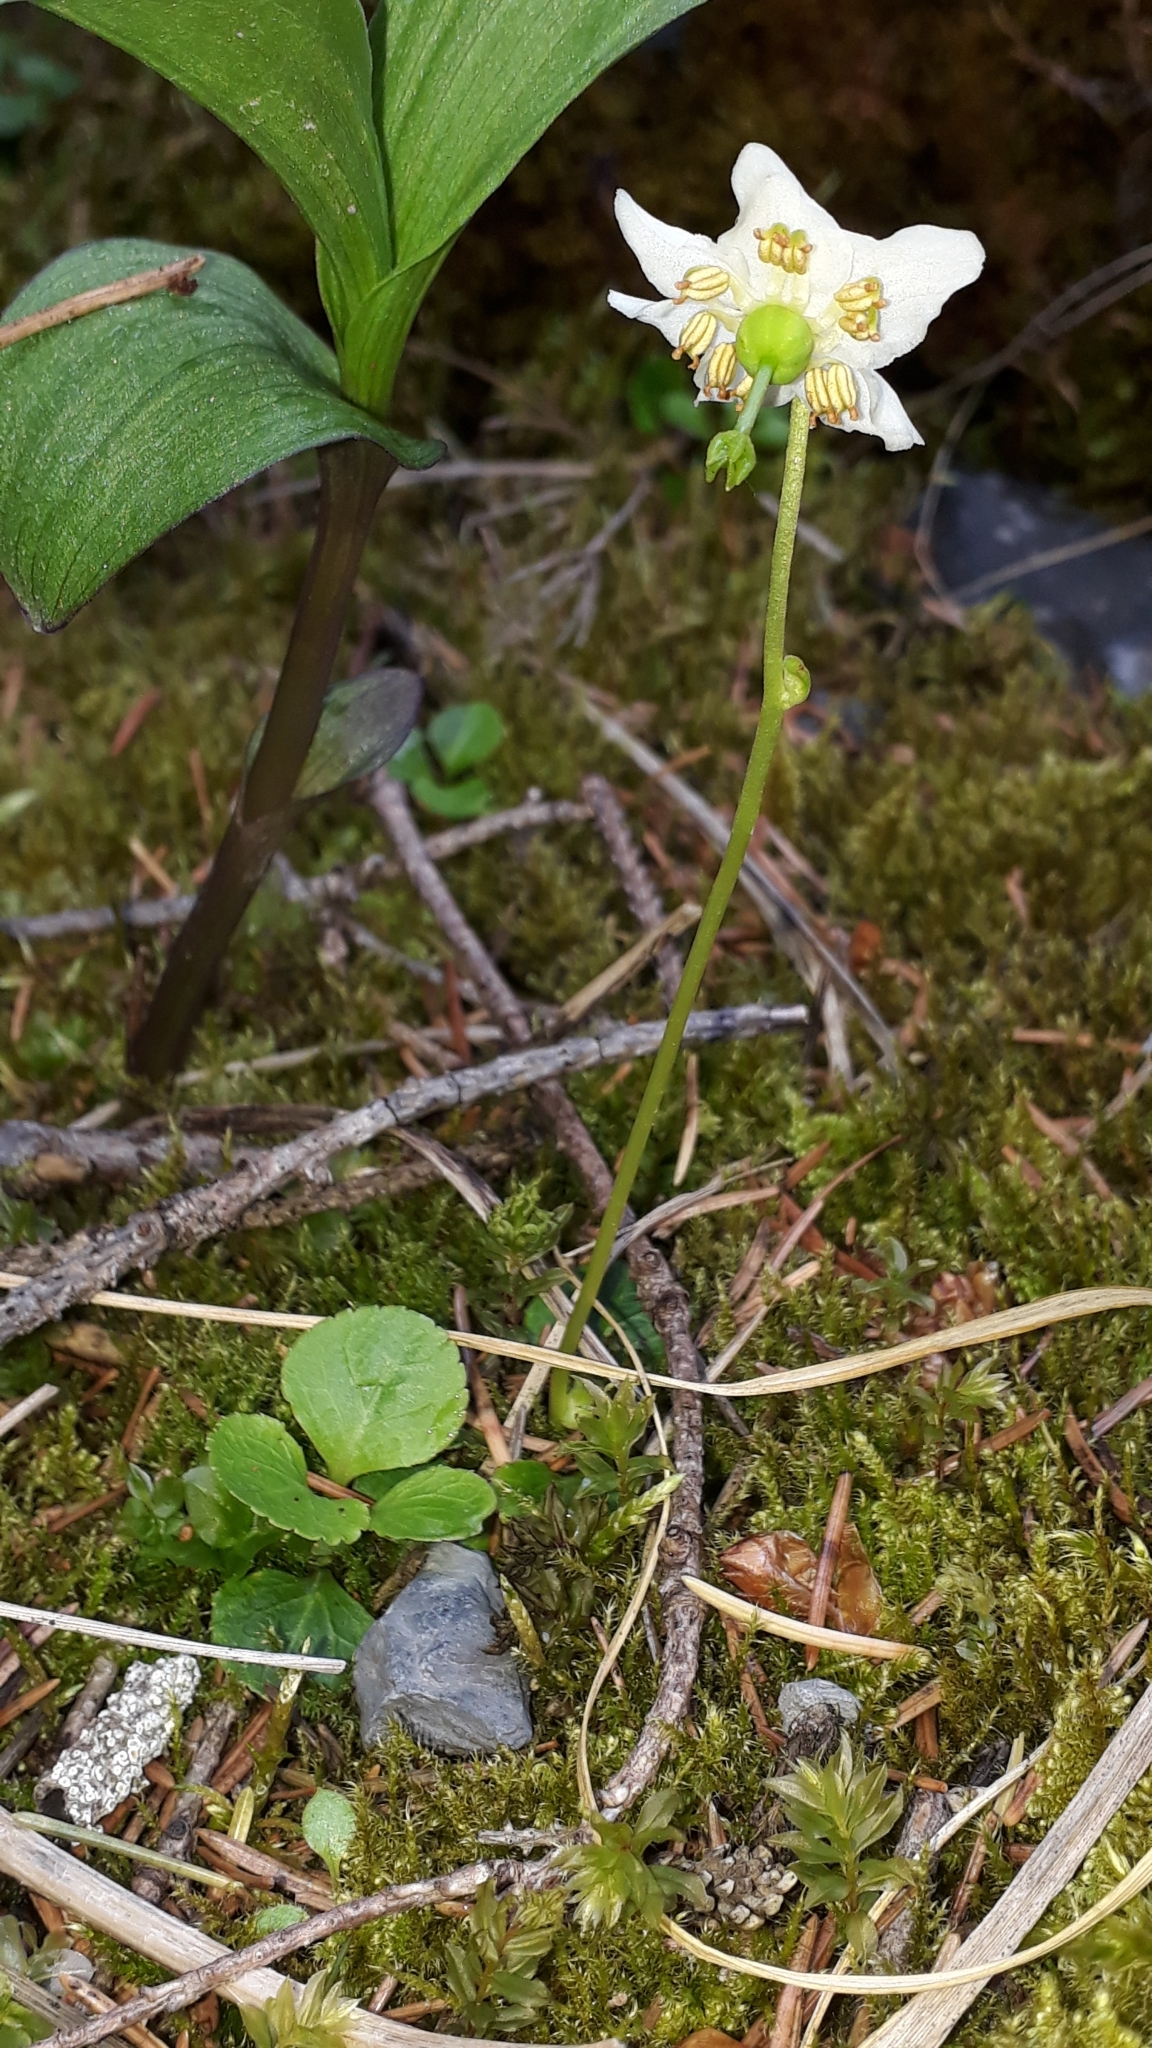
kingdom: Plantae
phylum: Tracheophyta
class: Magnoliopsida
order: Ericales
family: Ericaceae
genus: Moneses
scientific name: Moneses uniflora
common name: One-flowered wintergreen
